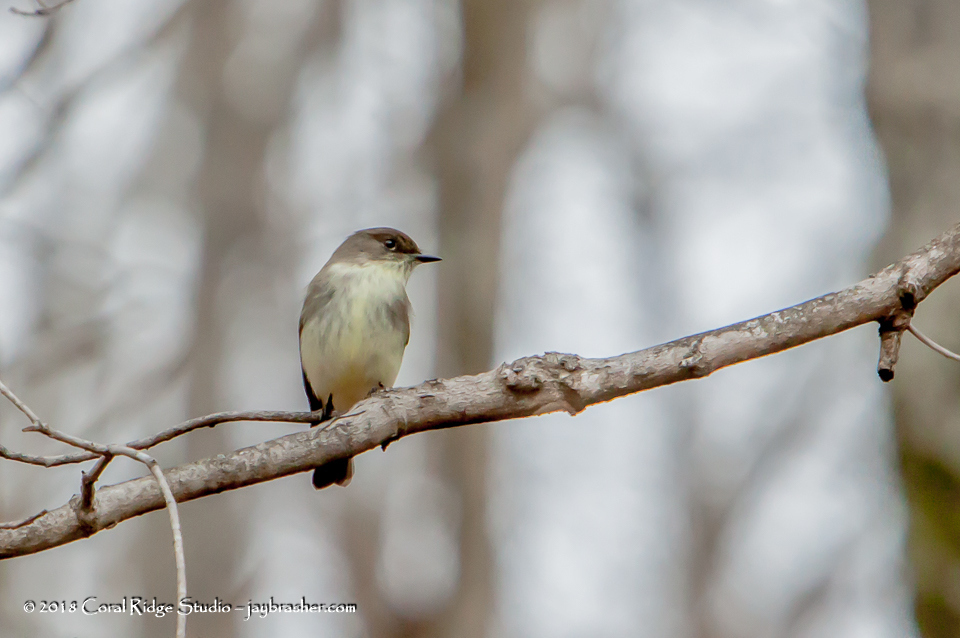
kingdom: Animalia
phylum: Chordata
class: Aves
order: Passeriformes
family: Tyrannidae
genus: Sayornis
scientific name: Sayornis phoebe
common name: Eastern phoebe
